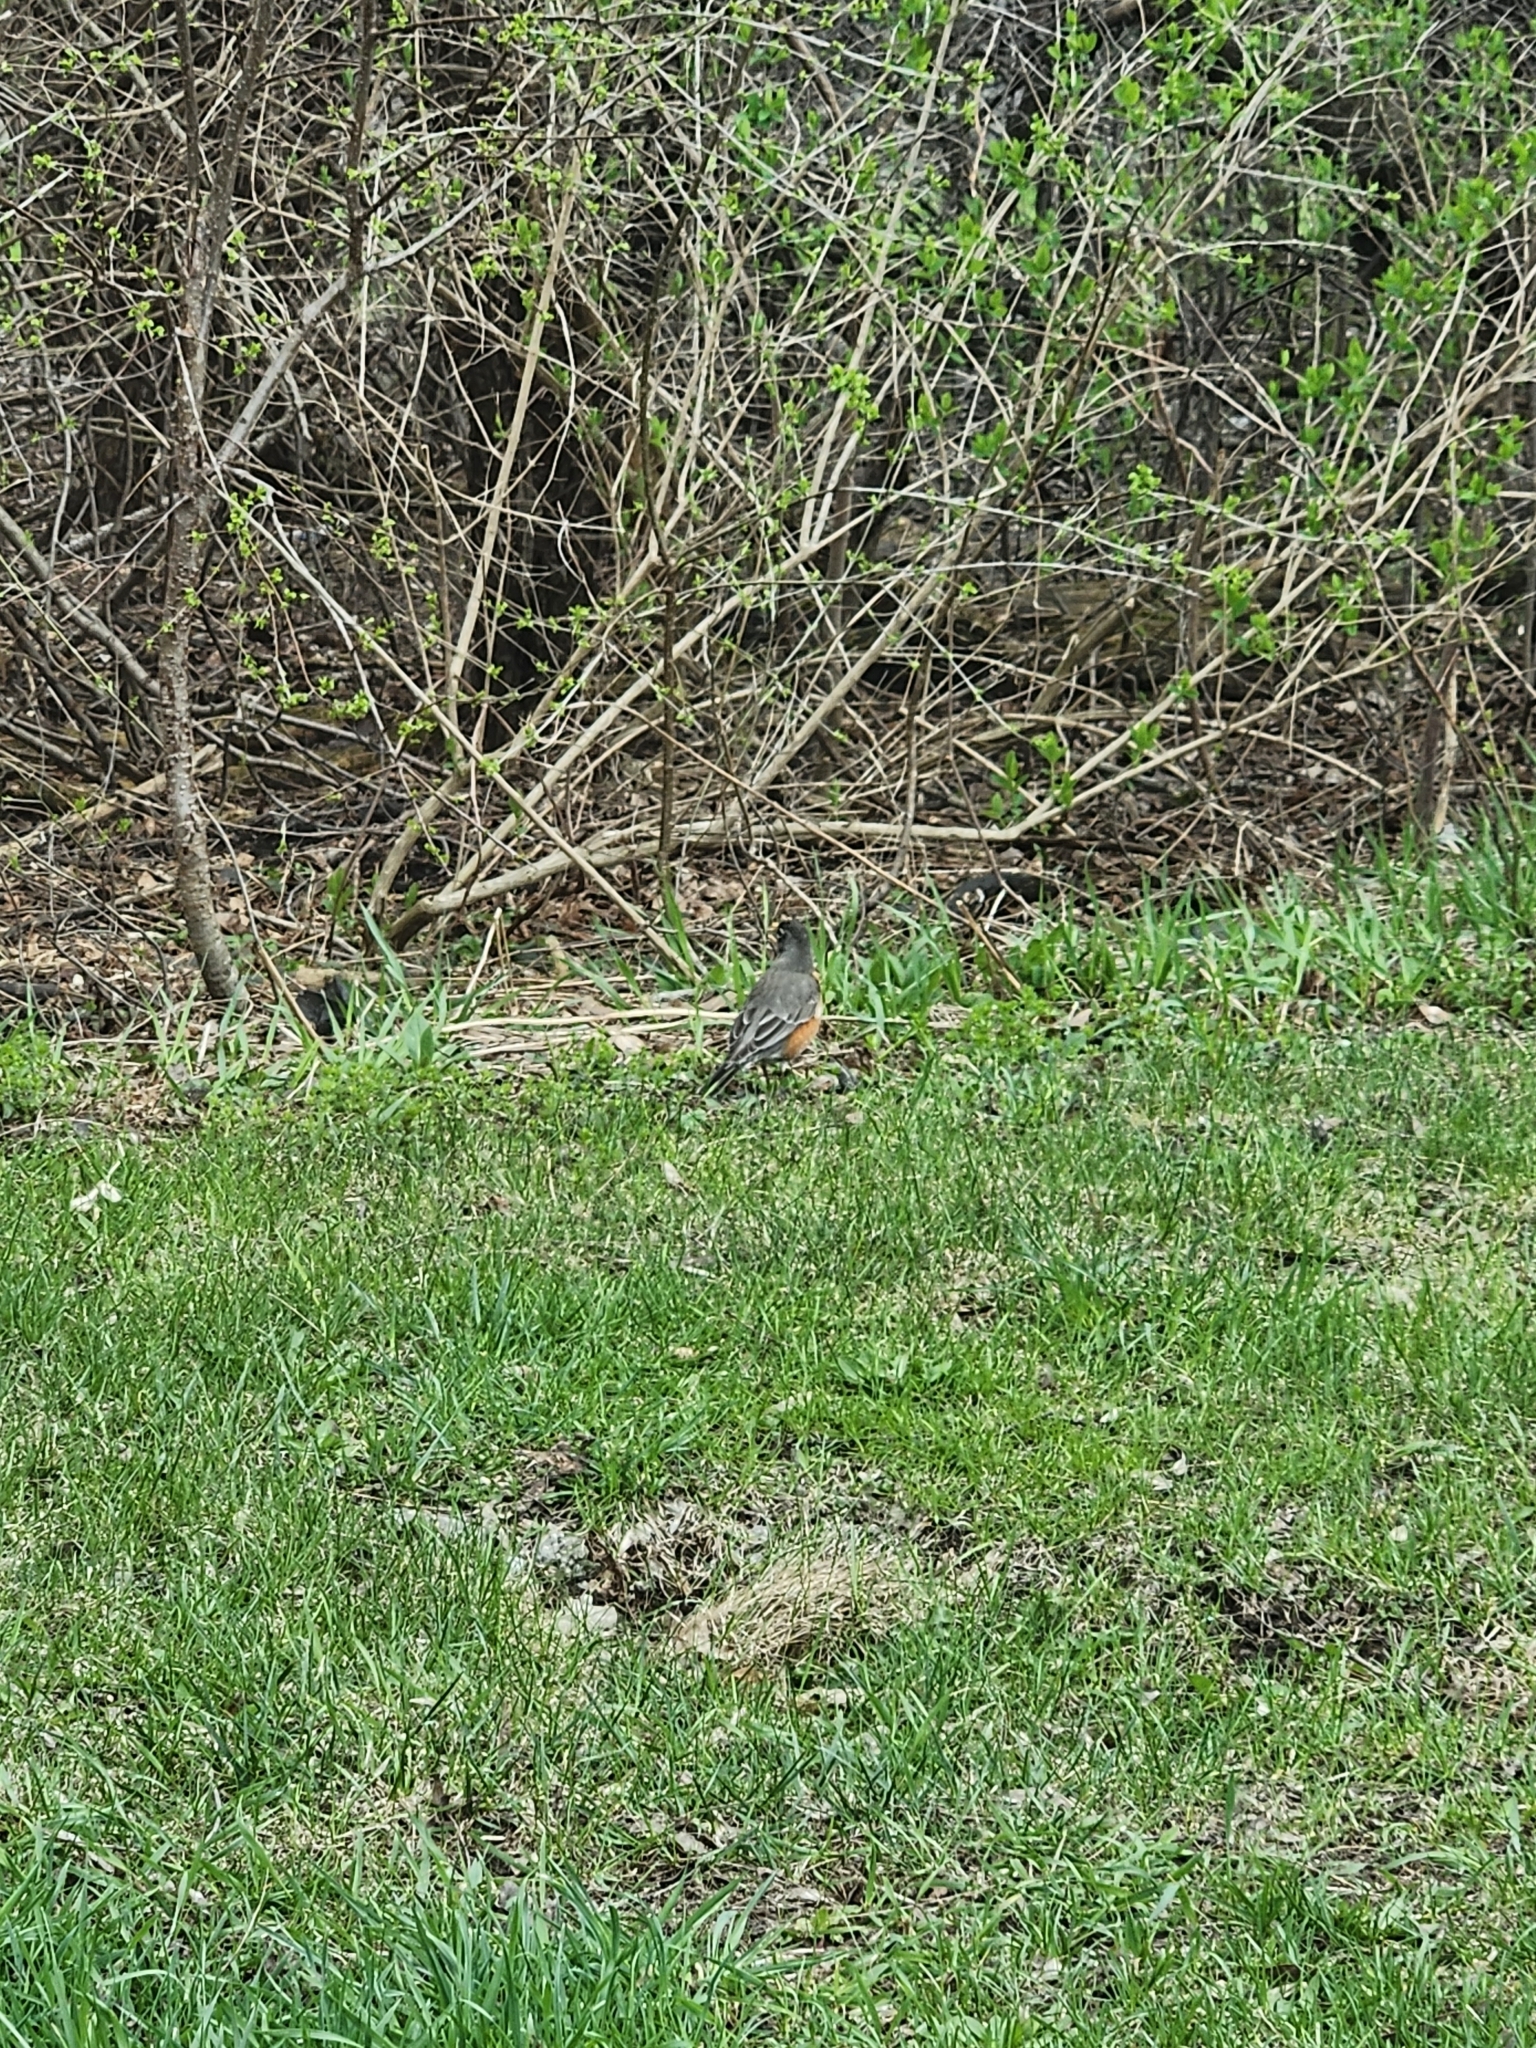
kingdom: Animalia
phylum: Chordata
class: Aves
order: Passeriformes
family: Turdidae
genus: Turdus
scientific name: Turdus migratorius
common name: American robin
